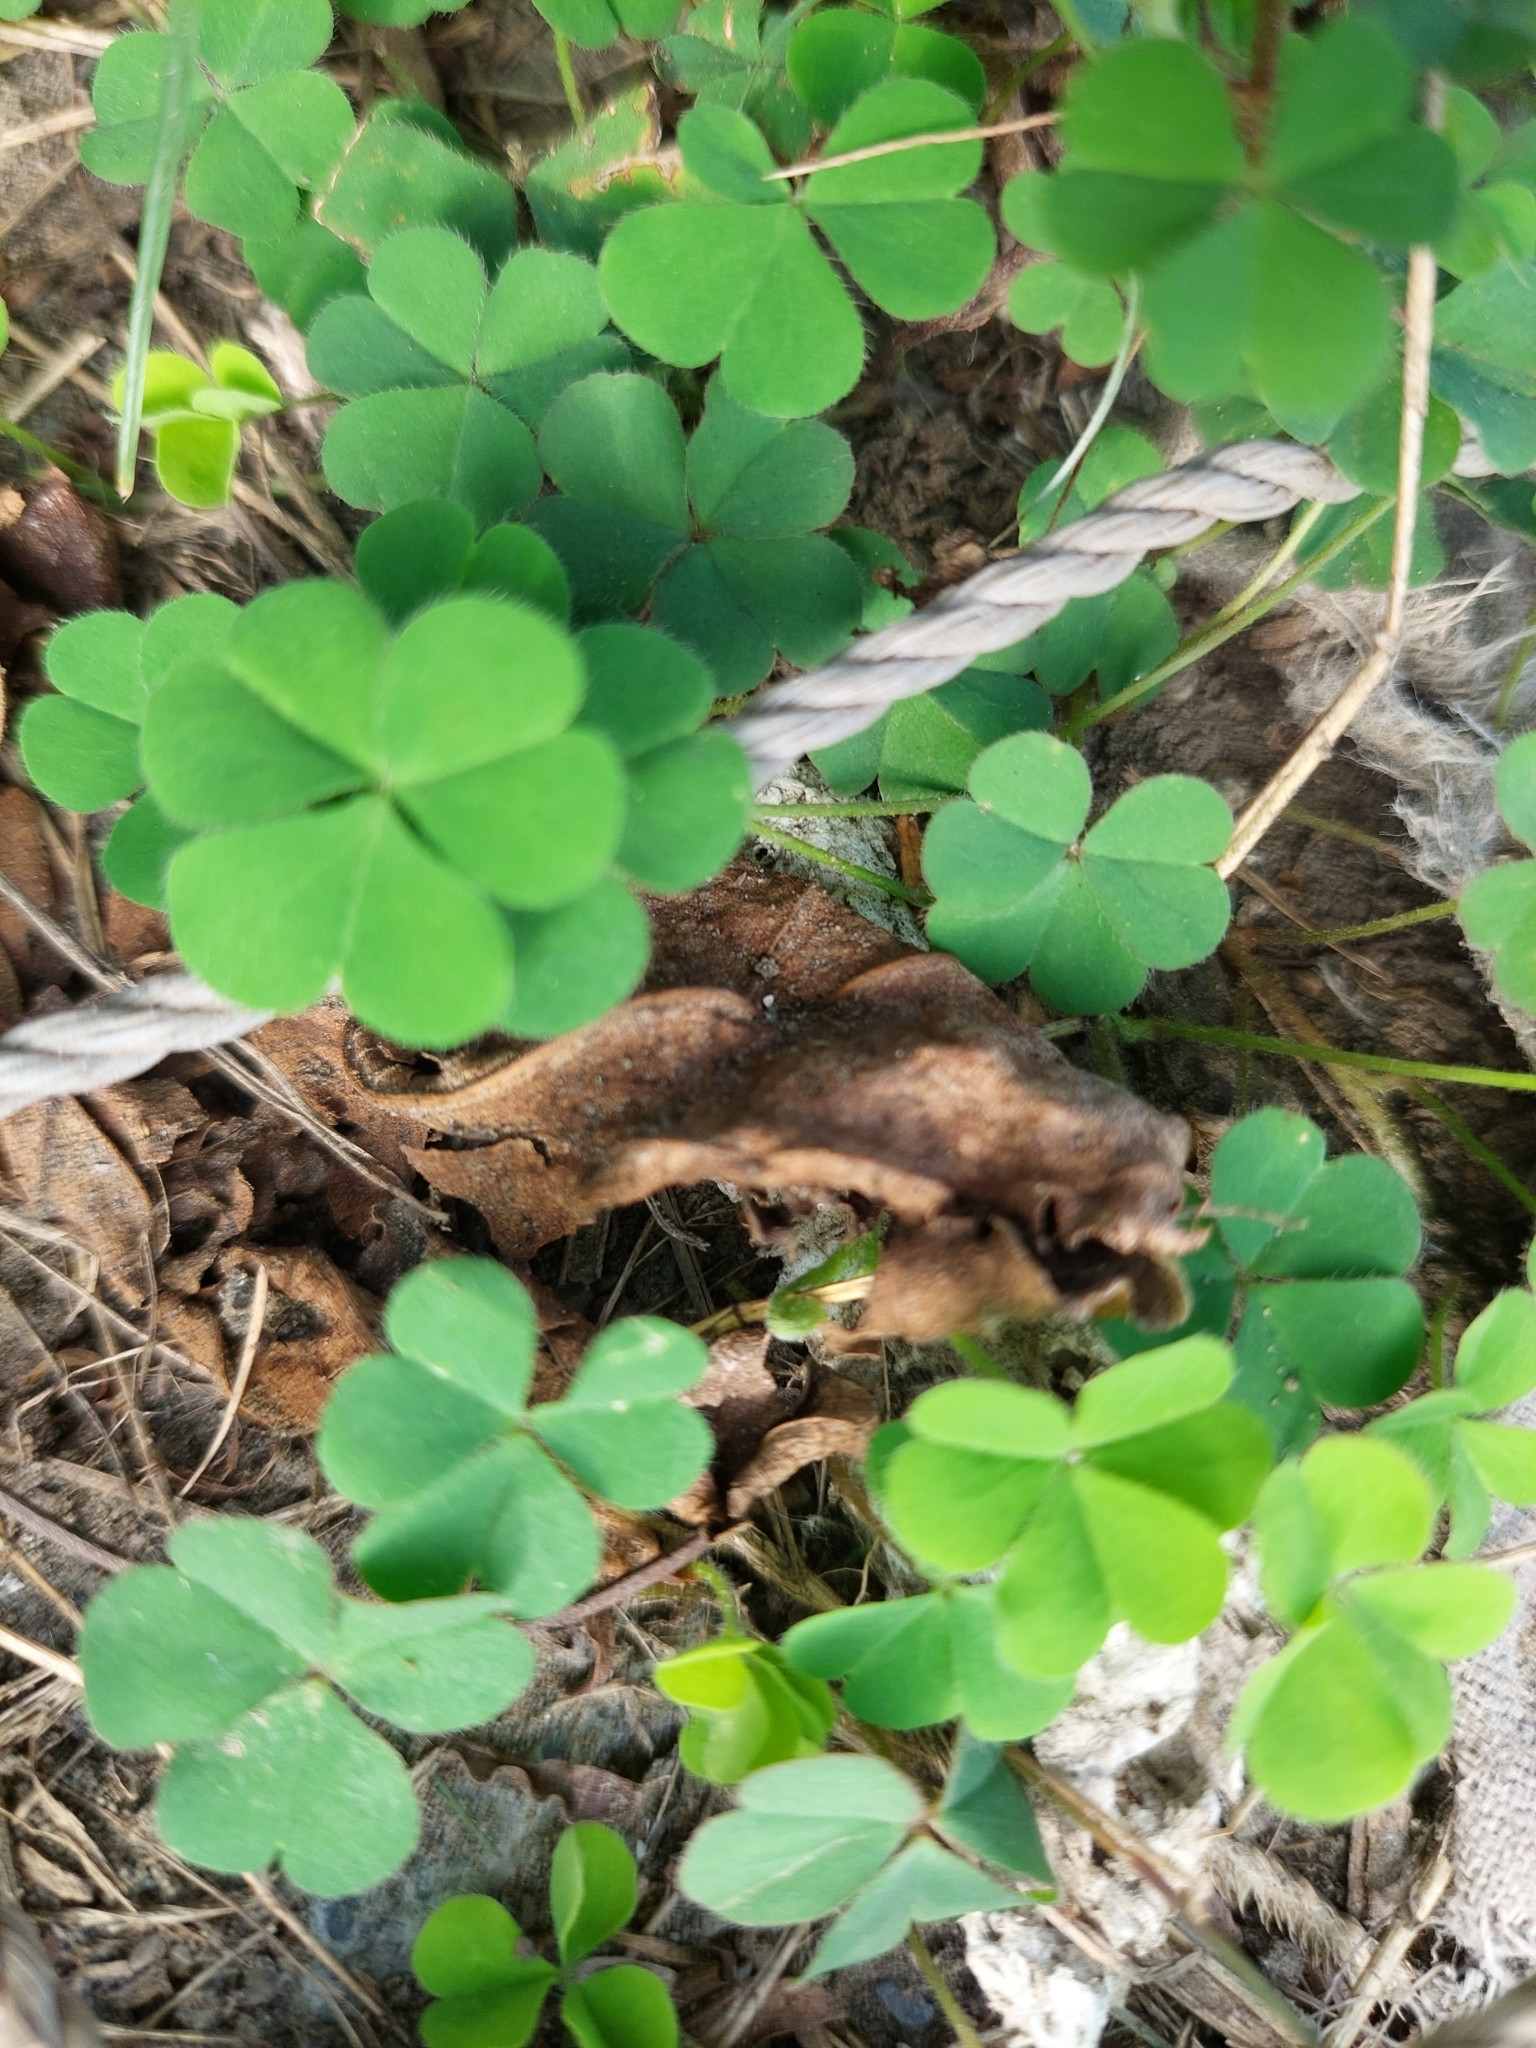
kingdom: Plantae
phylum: Tracheophyta
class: Magnoliopsida
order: Oxalidales
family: Oxalidaceae
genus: Oxalis
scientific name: Oxalis corniculata
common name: Procumbent yellow-sorrel
